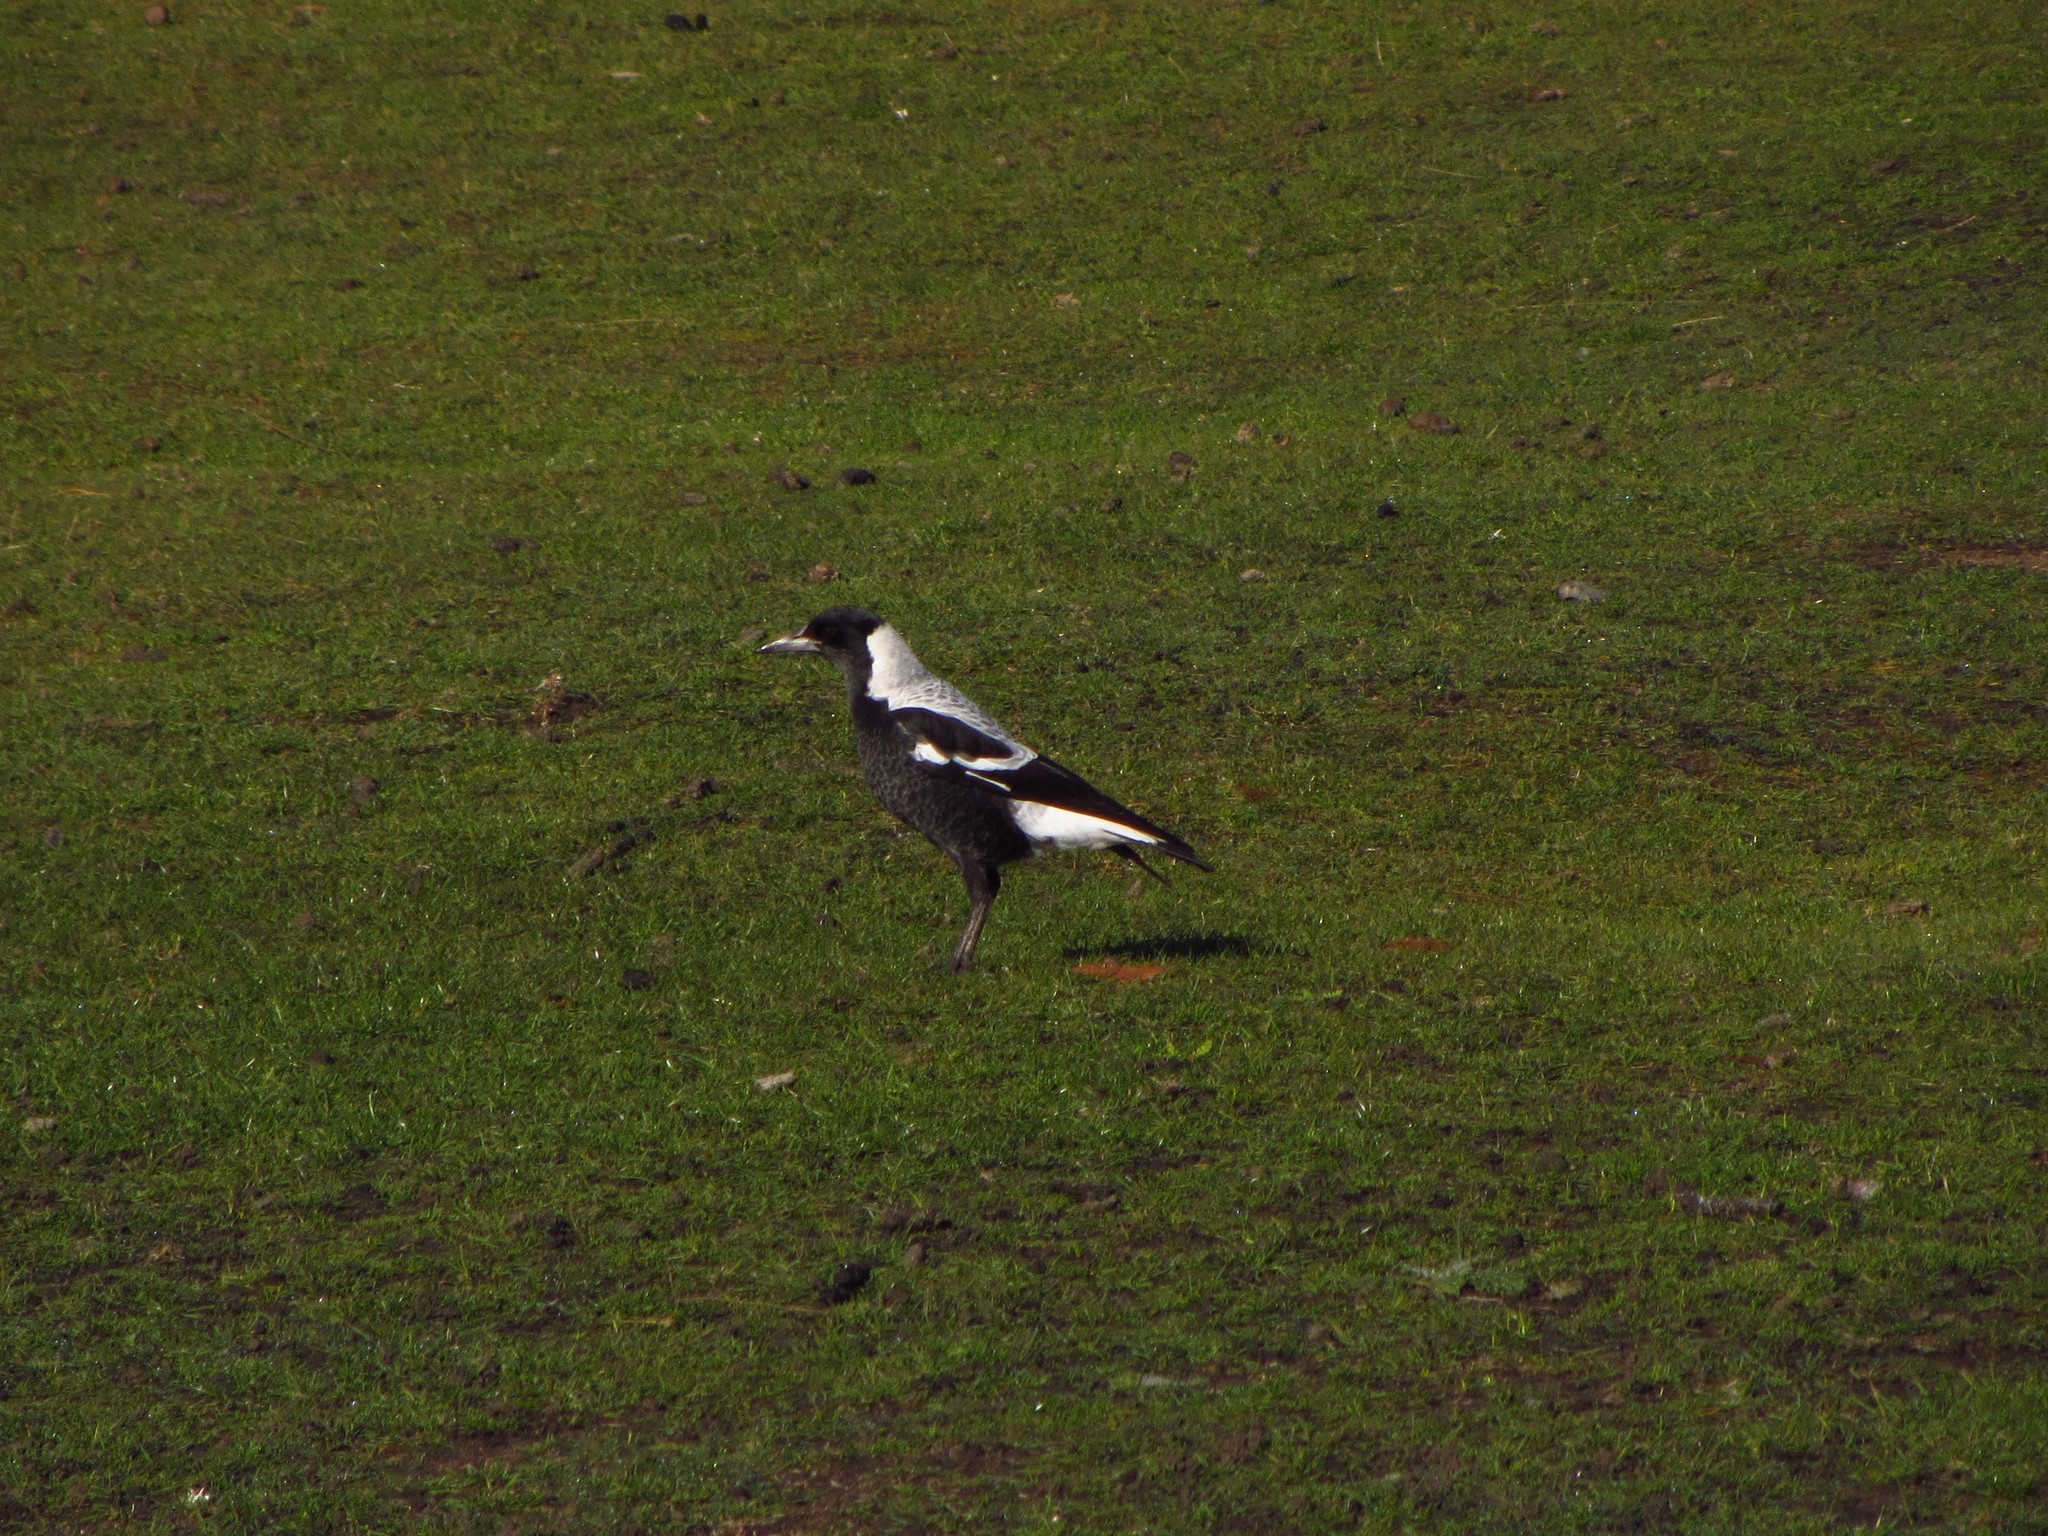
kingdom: Animalia
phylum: Chordata
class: Aves
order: Passeriformes
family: Cracticidae
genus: Gymnorhina
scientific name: Gymnorhina tibicen
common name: Australian magpie
